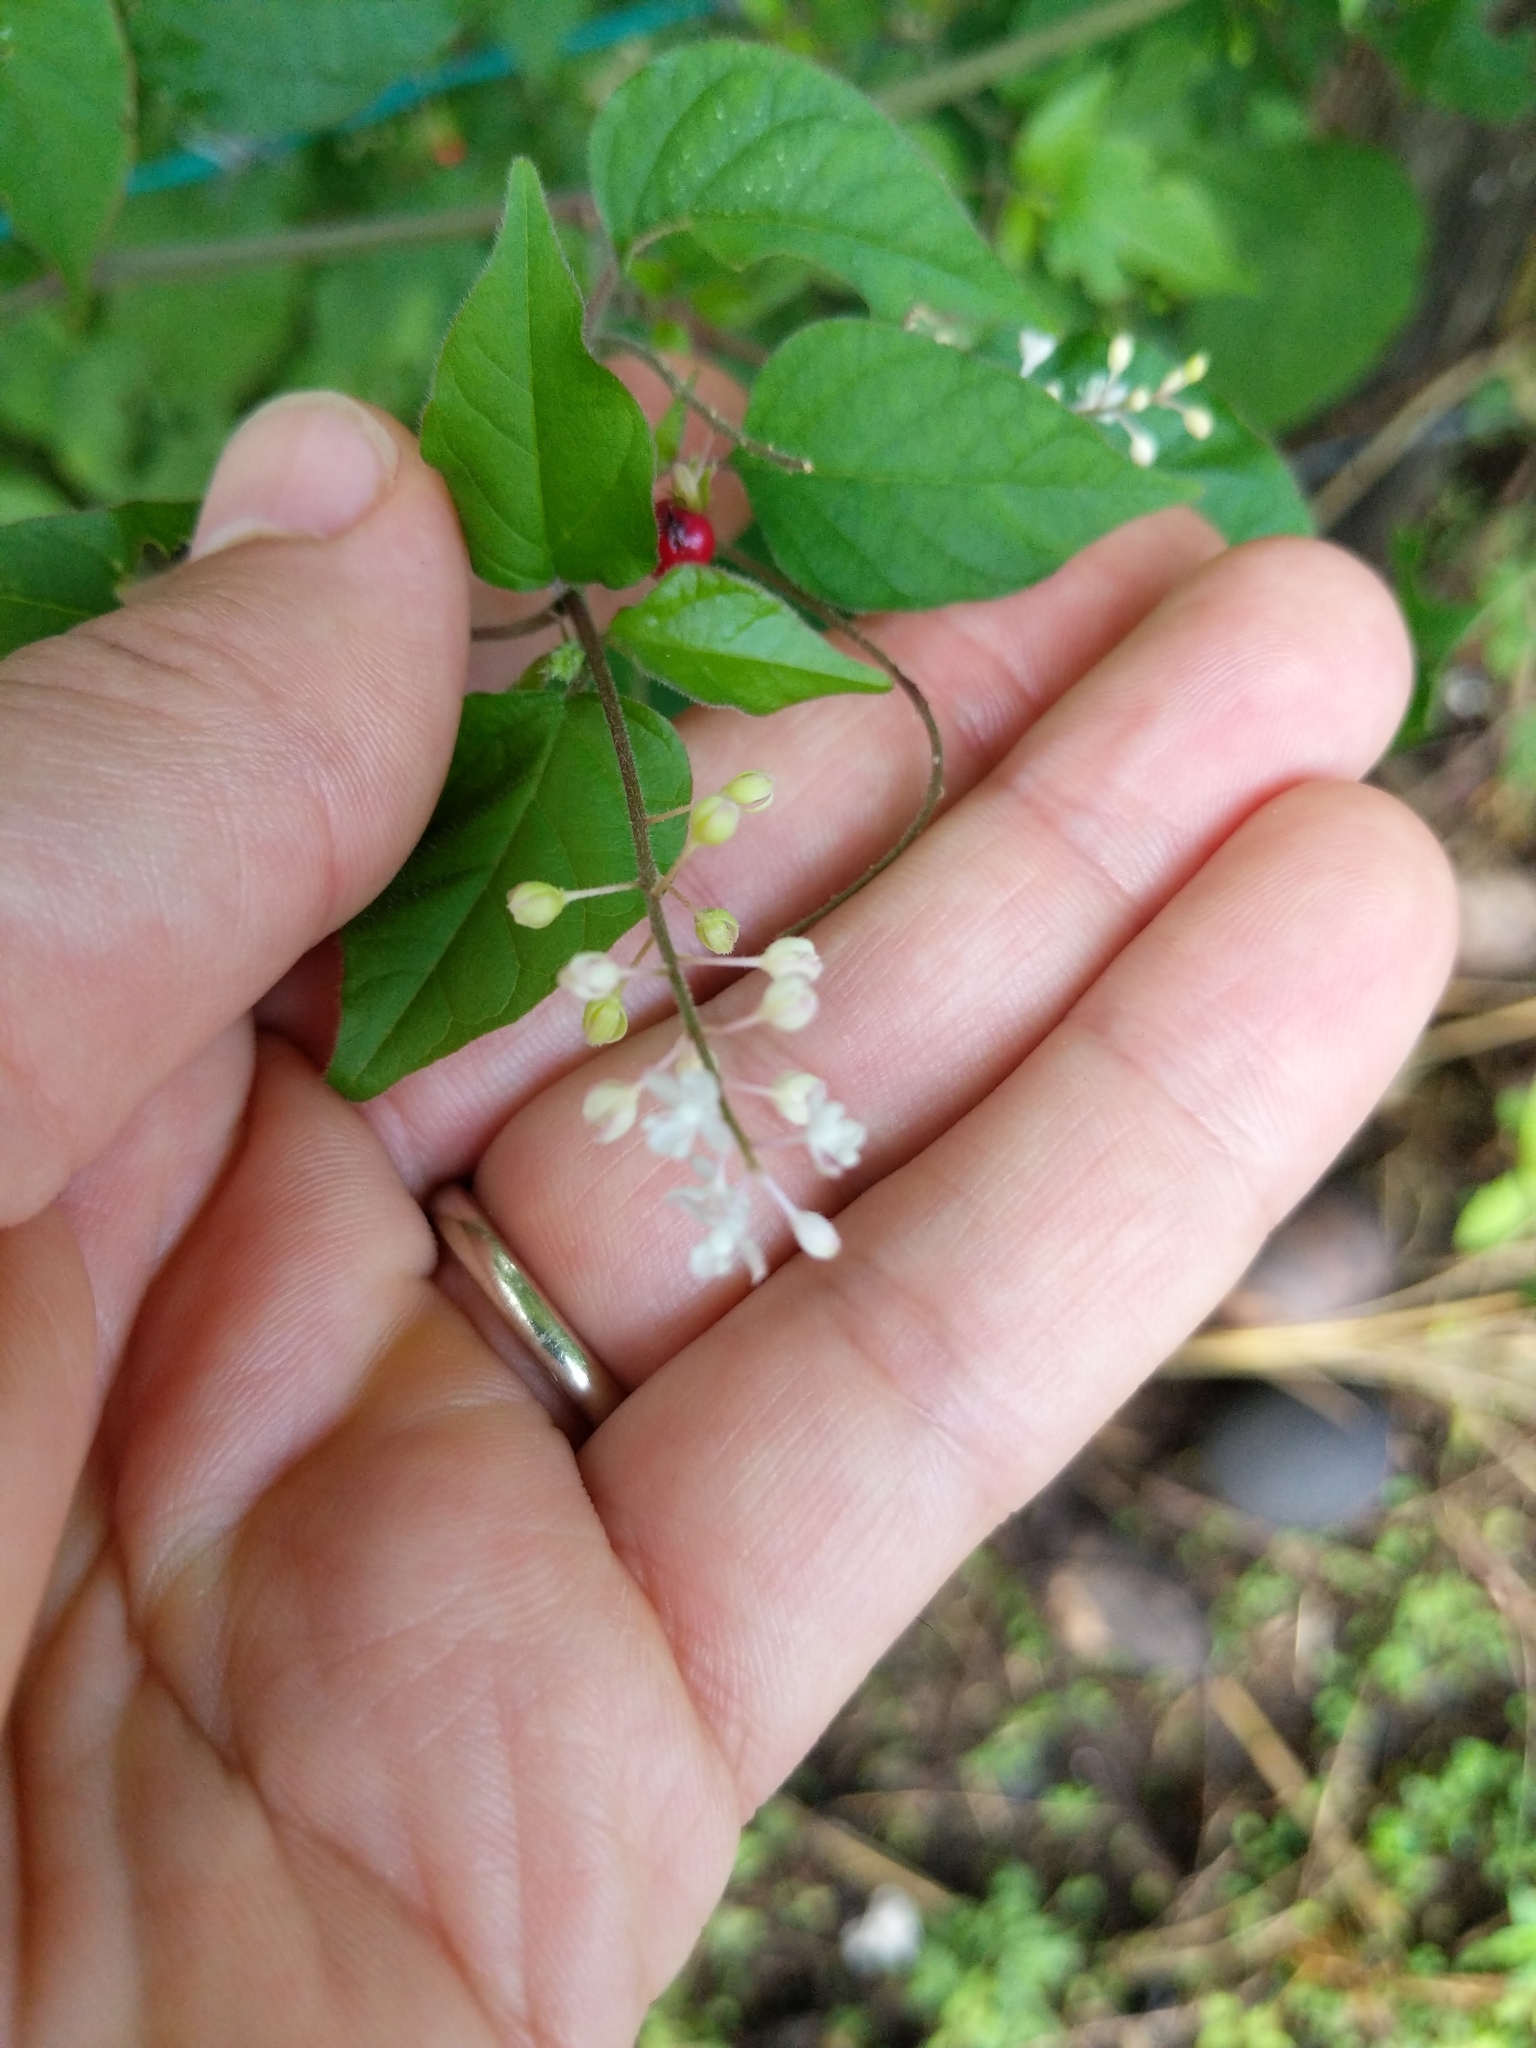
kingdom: Plantae
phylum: Tracheophyta
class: Magnoliopsida
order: Caryophyllales
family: Phytolaccaceae
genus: Rivina
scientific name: Rivina humilis
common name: Rougeplant
